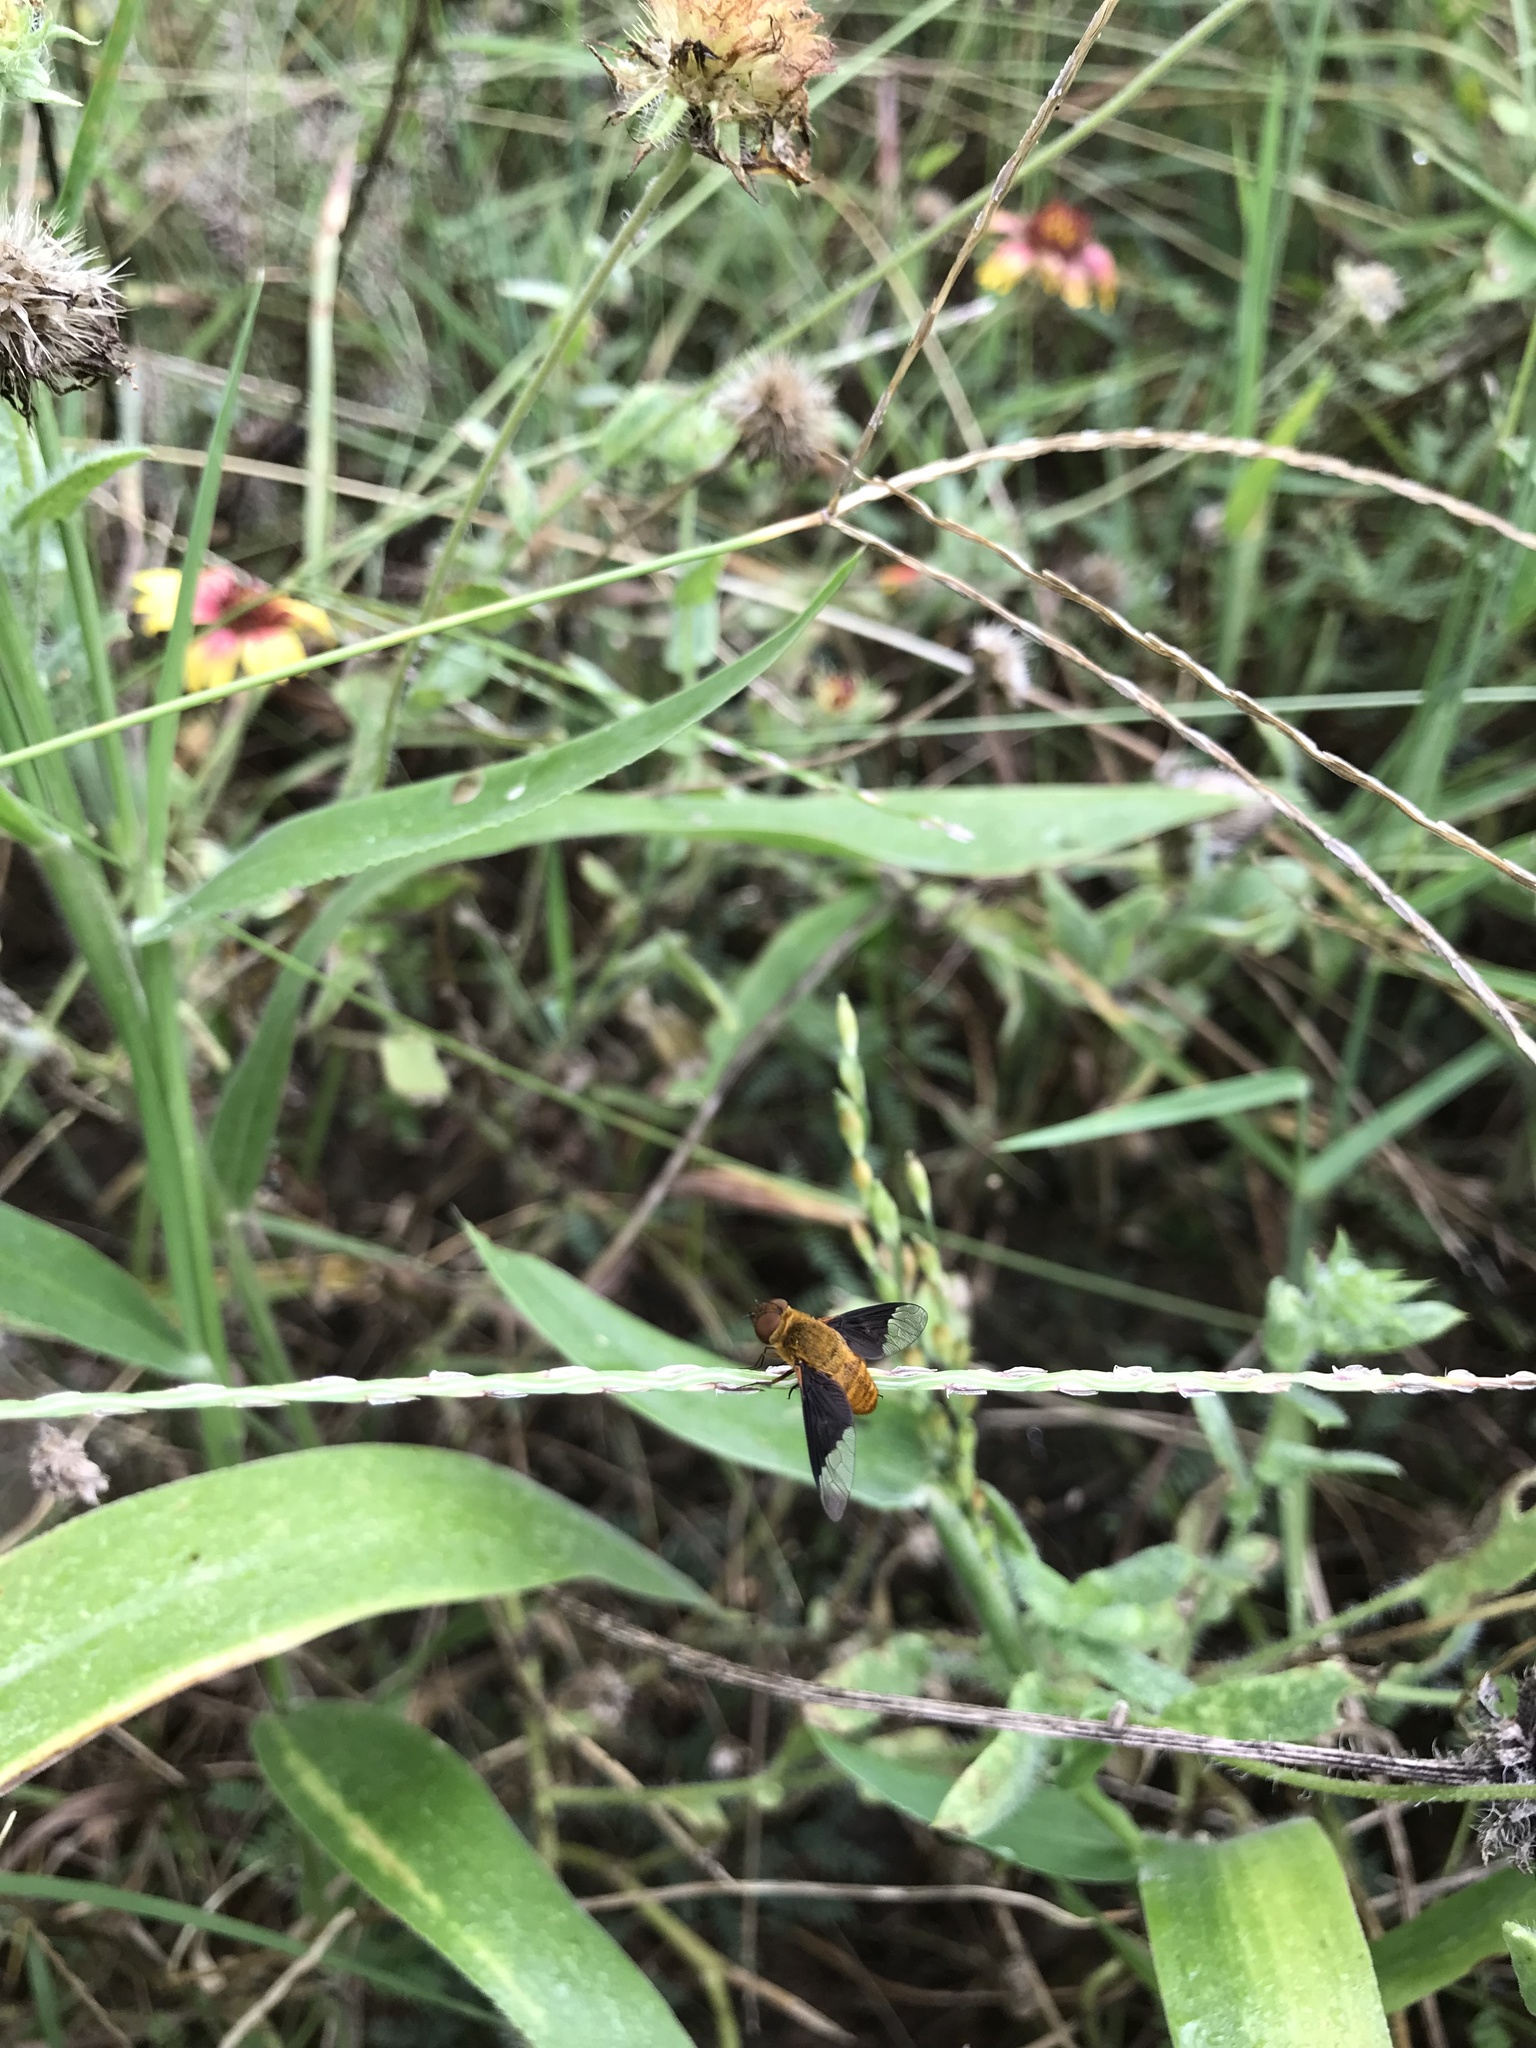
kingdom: Animalia
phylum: Arthropoda
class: Insecta
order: Diptera
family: Bombyliidae
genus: Chrysanthrax
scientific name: Chrysanthrax cypris
